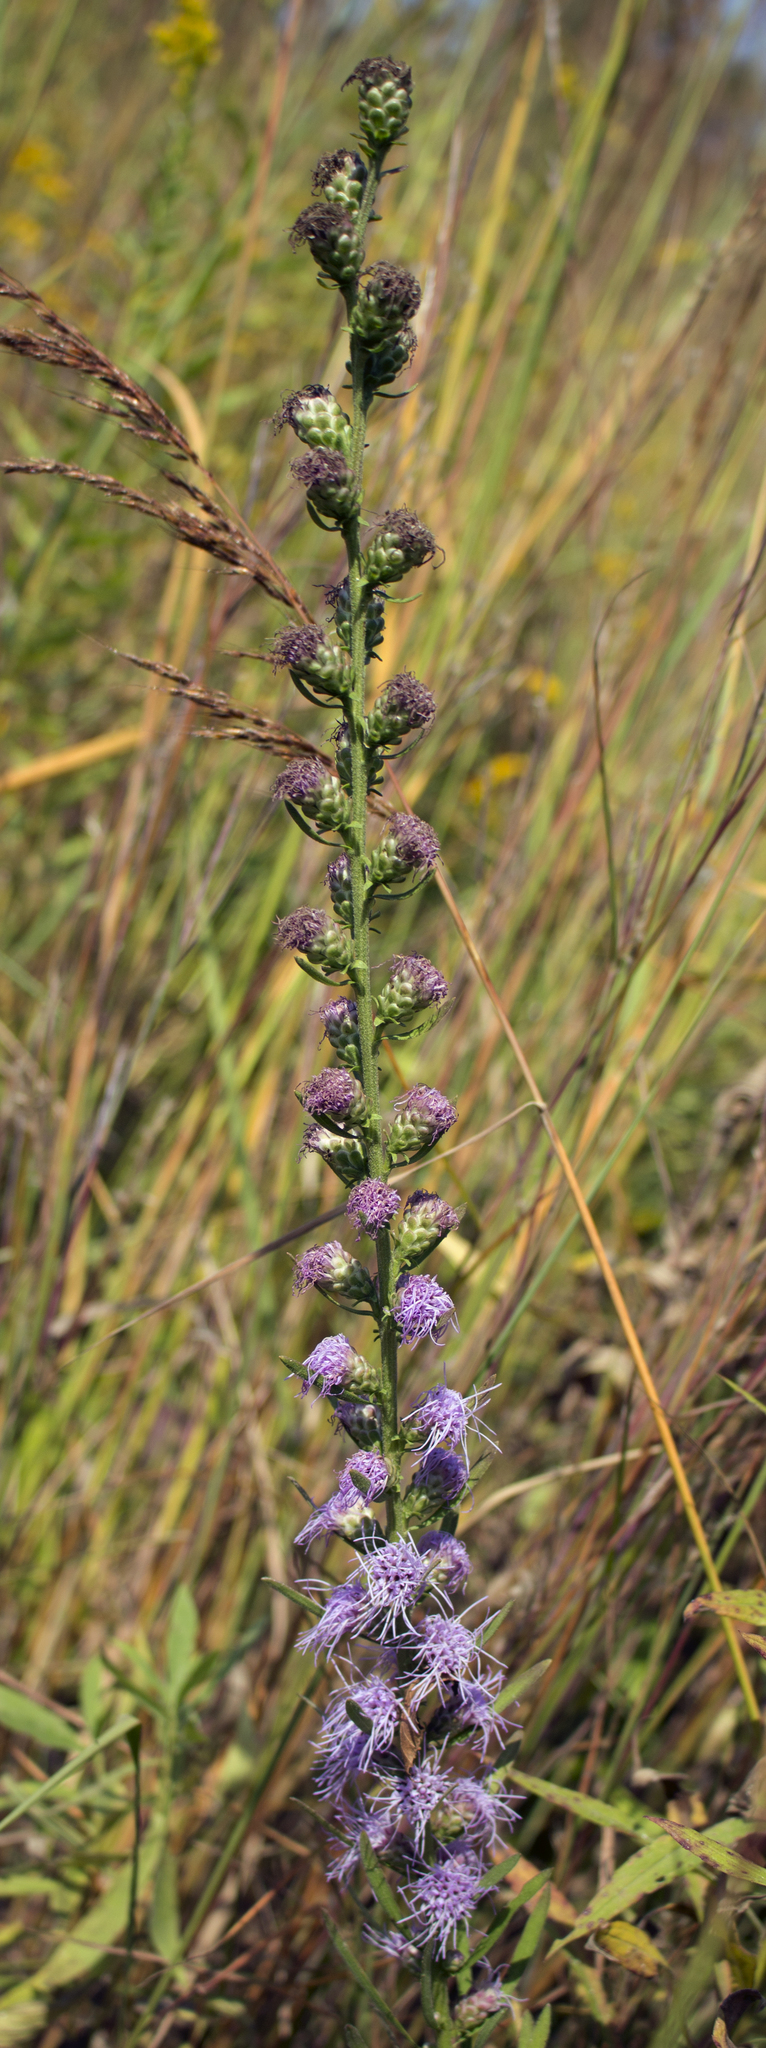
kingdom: Plantae
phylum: Tracheophyta
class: Magnoliopsida
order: Asterales
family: Asteraceae
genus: Liatris
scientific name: Liatris aspera
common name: Lacerate blazing-star
